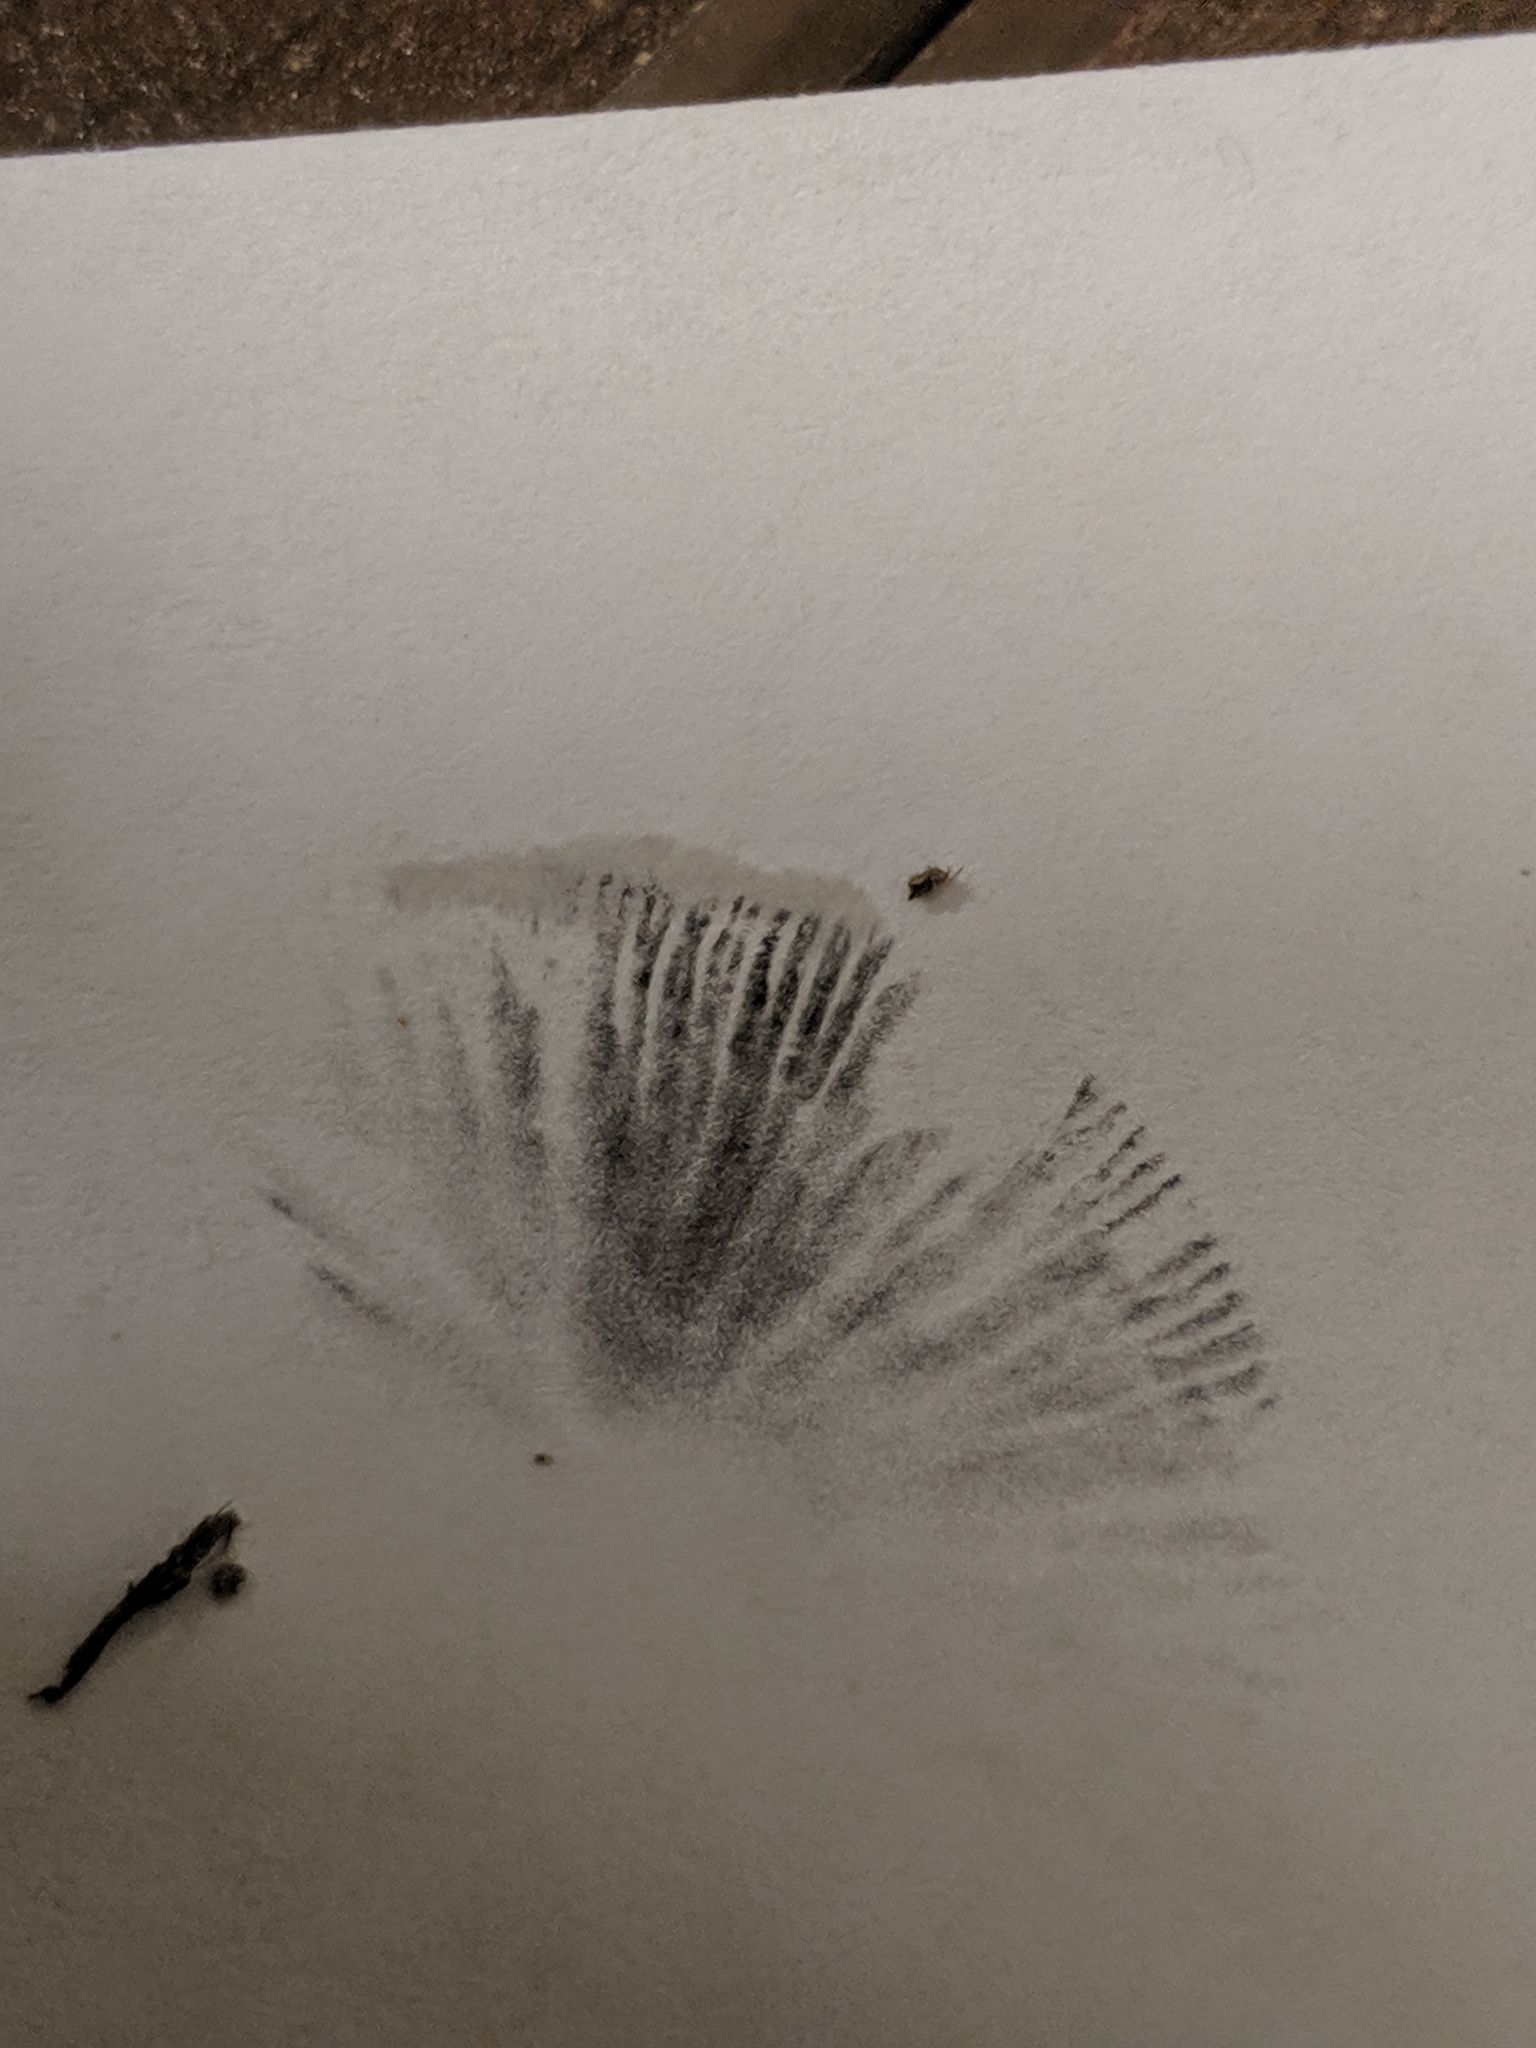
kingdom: Fungi
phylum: Basidiomycota
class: Agaricomycetes
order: Agaricales
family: Bolbitiaceae
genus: Panaeolus
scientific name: Panaeolus papilionaceus
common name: Petticoat mottlegill
